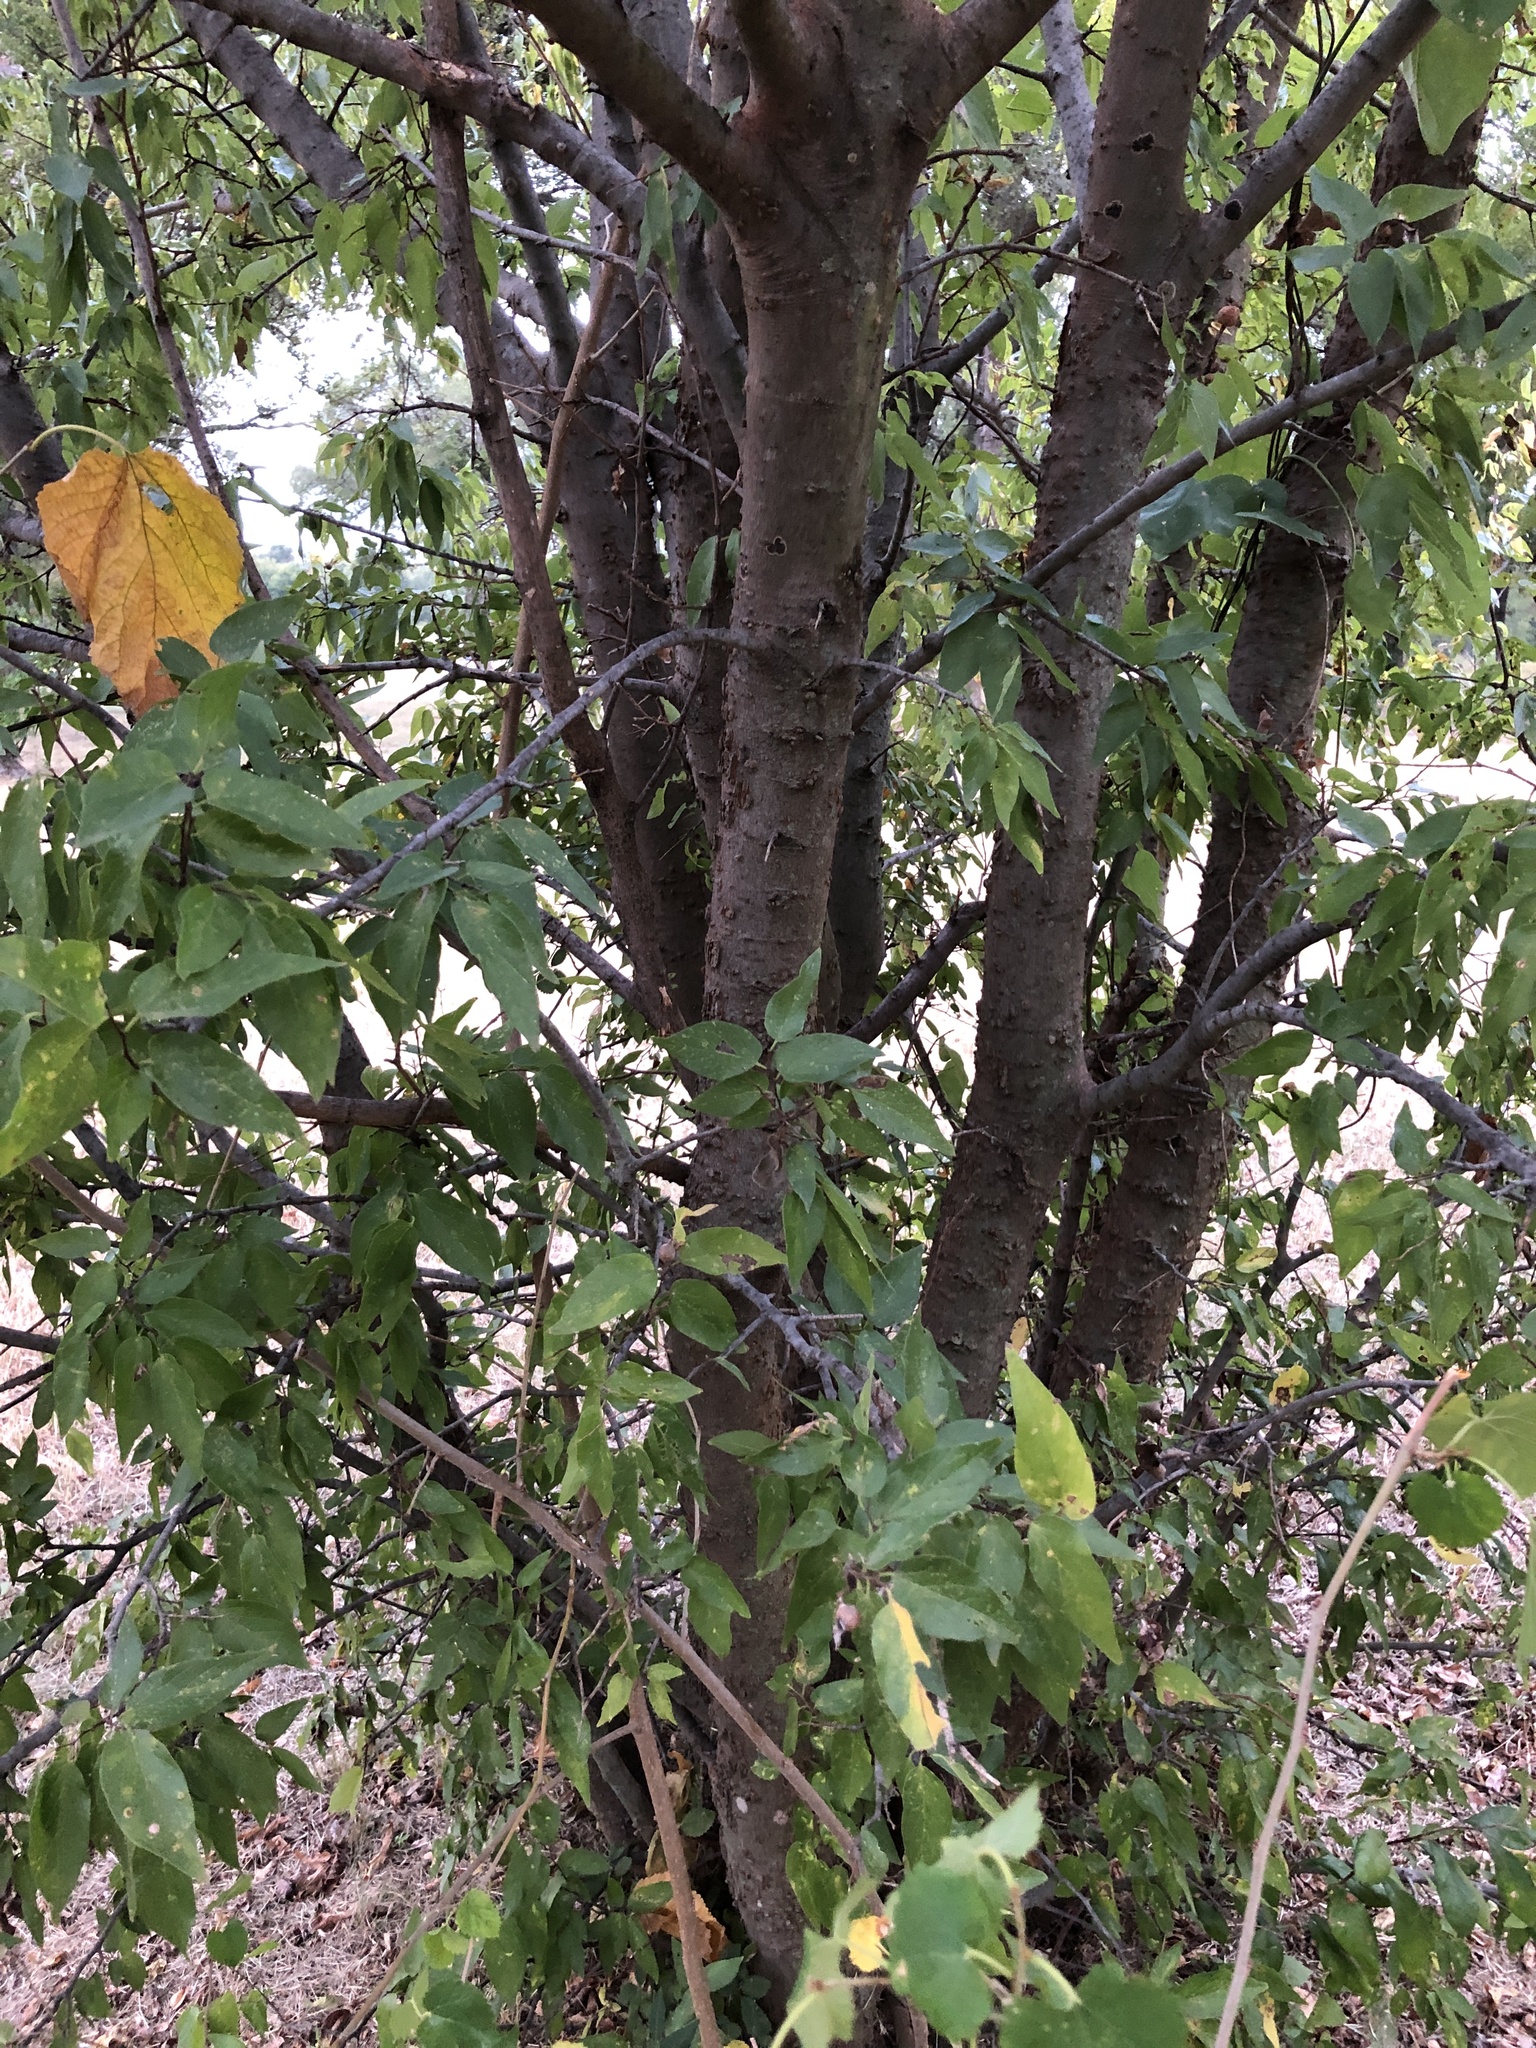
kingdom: Plantae
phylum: Tracheophyta
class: Magnoliopsida
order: Rosales
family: Cannabaceae
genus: Celtis
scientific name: Celtis laevigata
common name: Sugarberry
